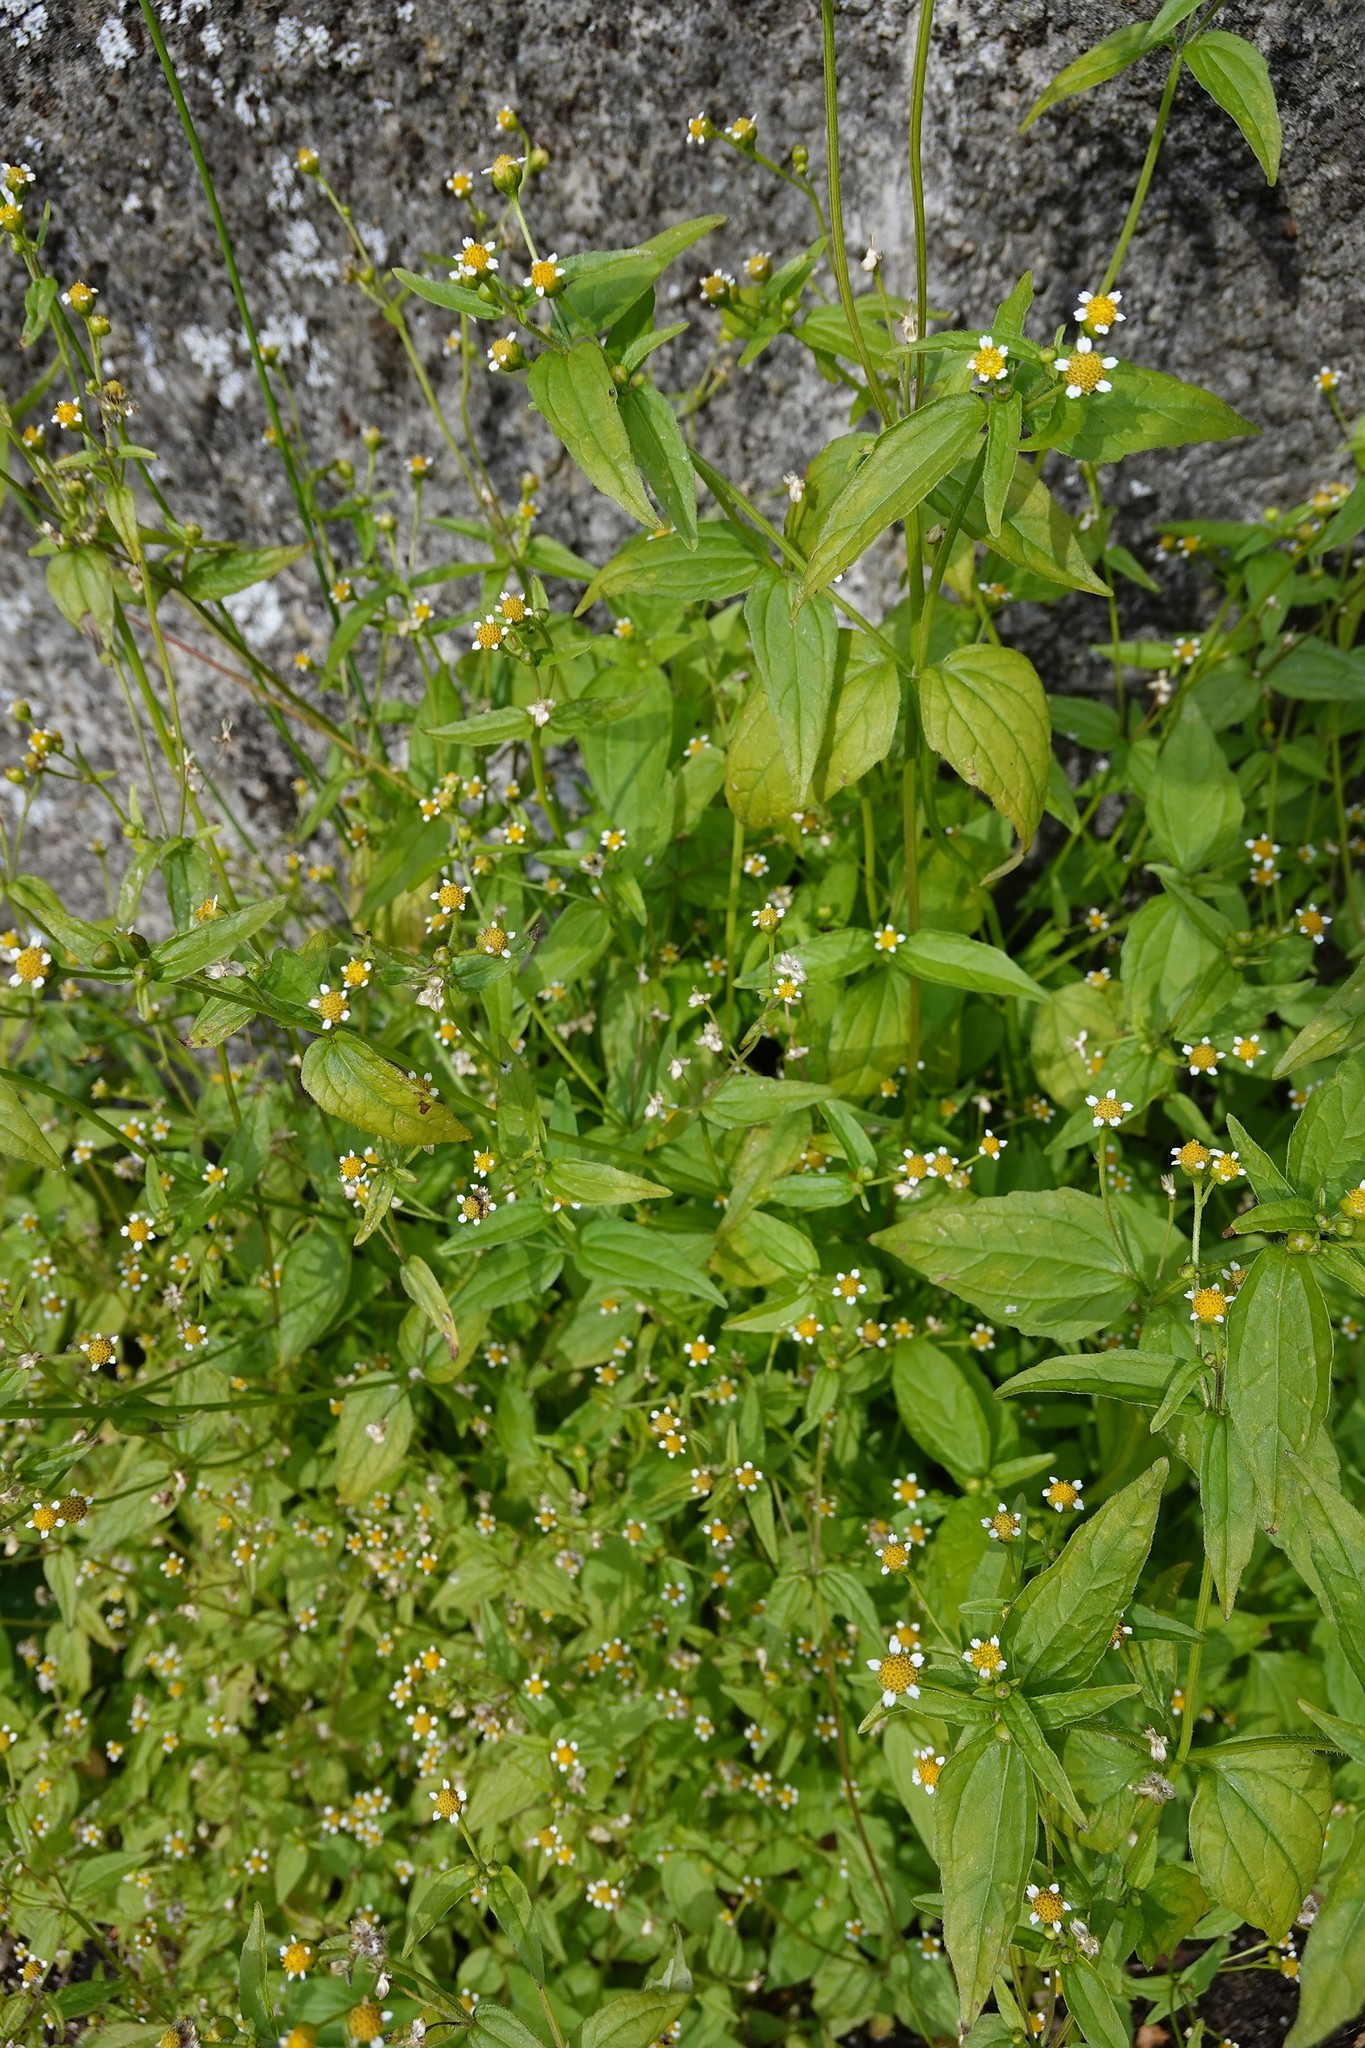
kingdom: Plantae
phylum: Tracheophyta
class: Magnoliopsida
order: Asterales
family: Asteraceae
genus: Galinsoga
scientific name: Galinsoga parviflora
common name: Gallant soldier
